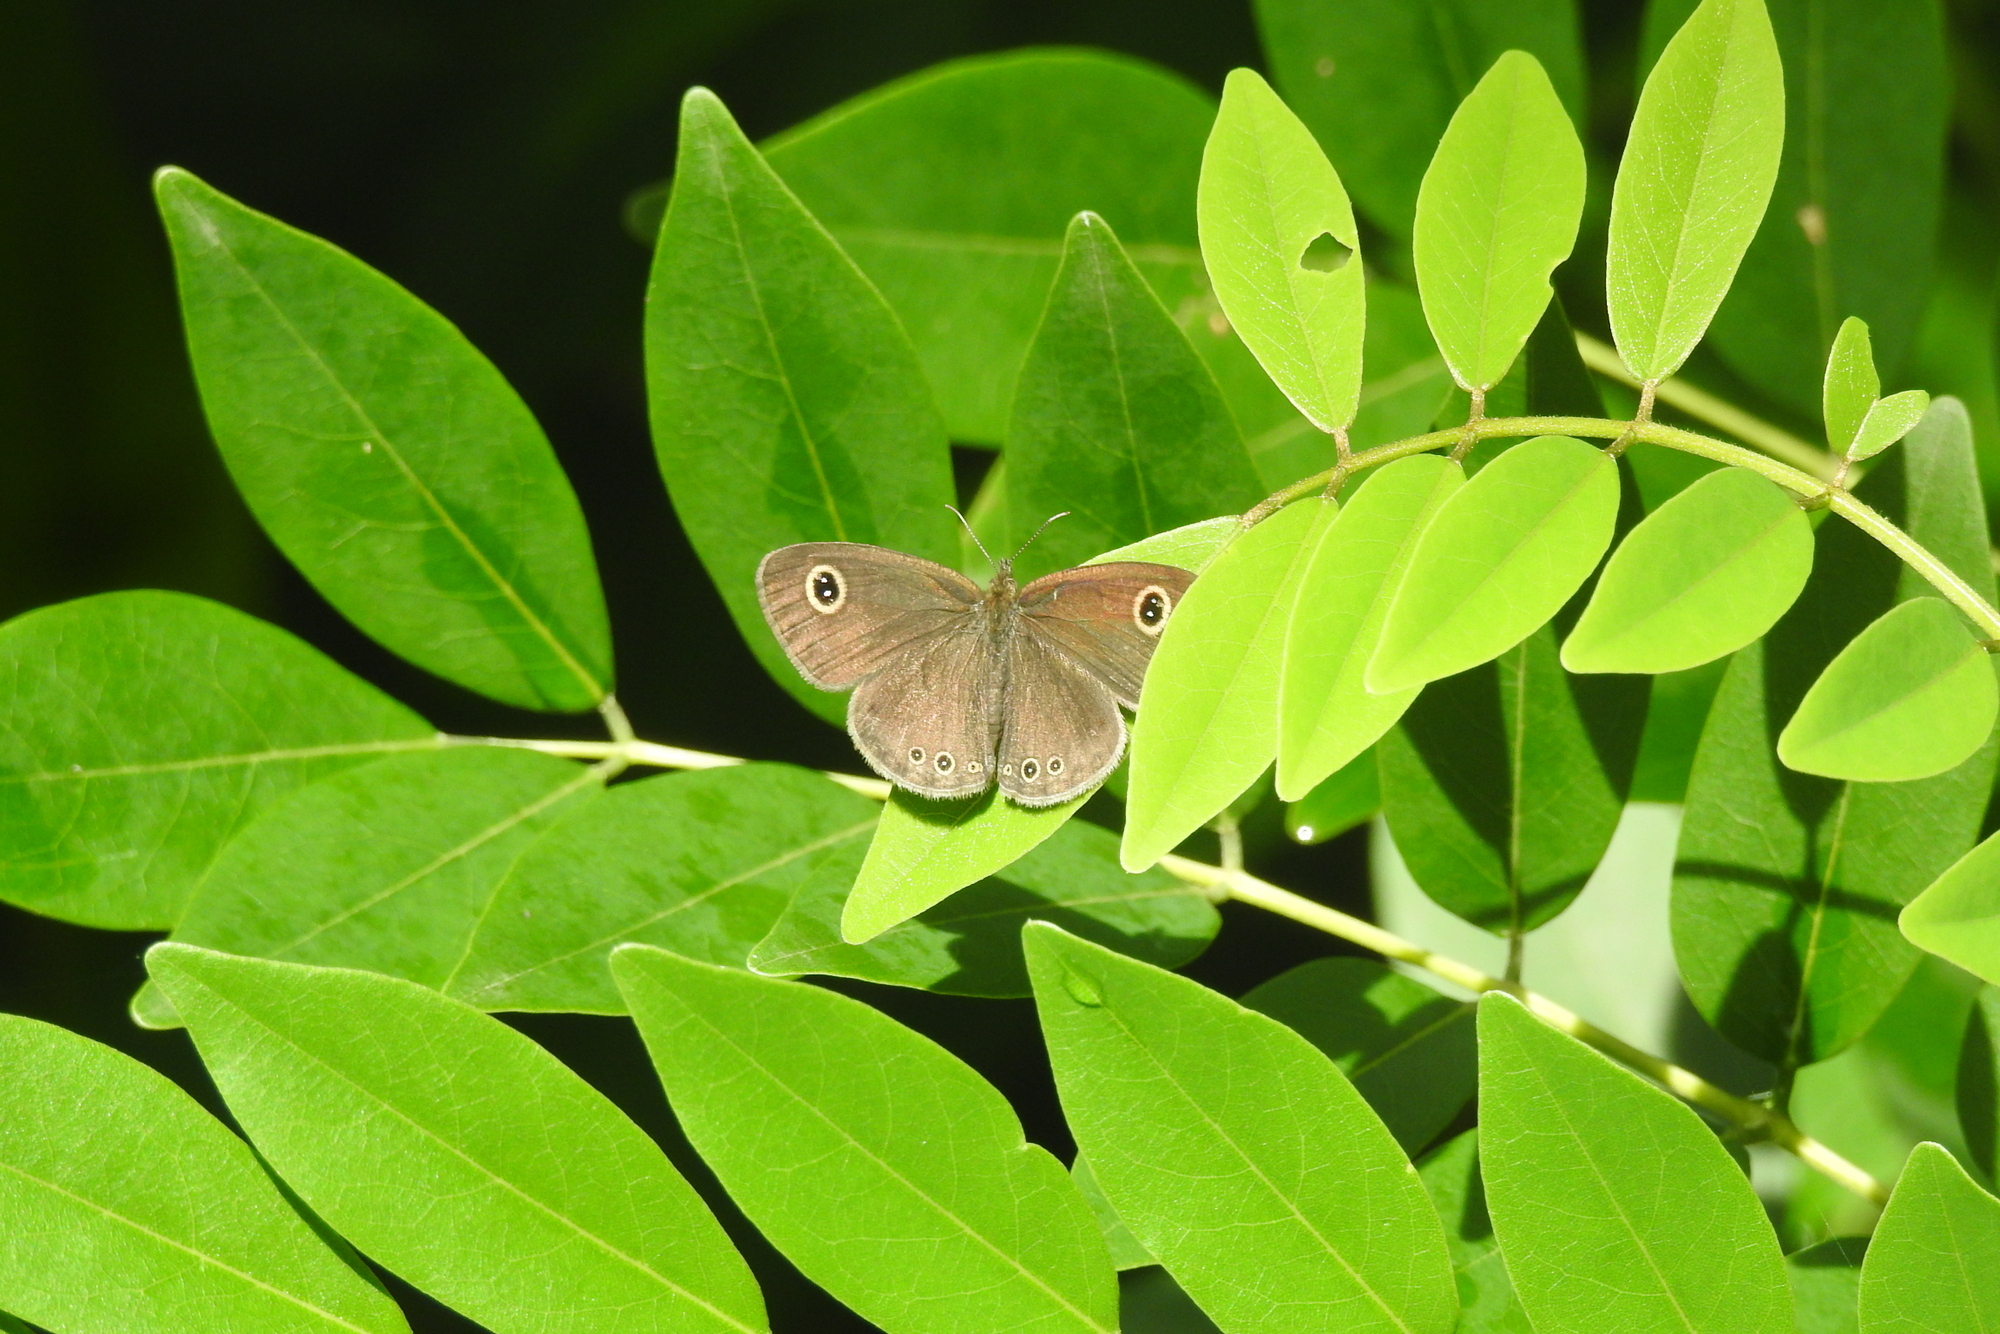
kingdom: Animalia
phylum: Arthropoda
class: Insecta
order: Lepidoptera
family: Nymphalidae
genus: Ypthima
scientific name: Ypthima huebneri
